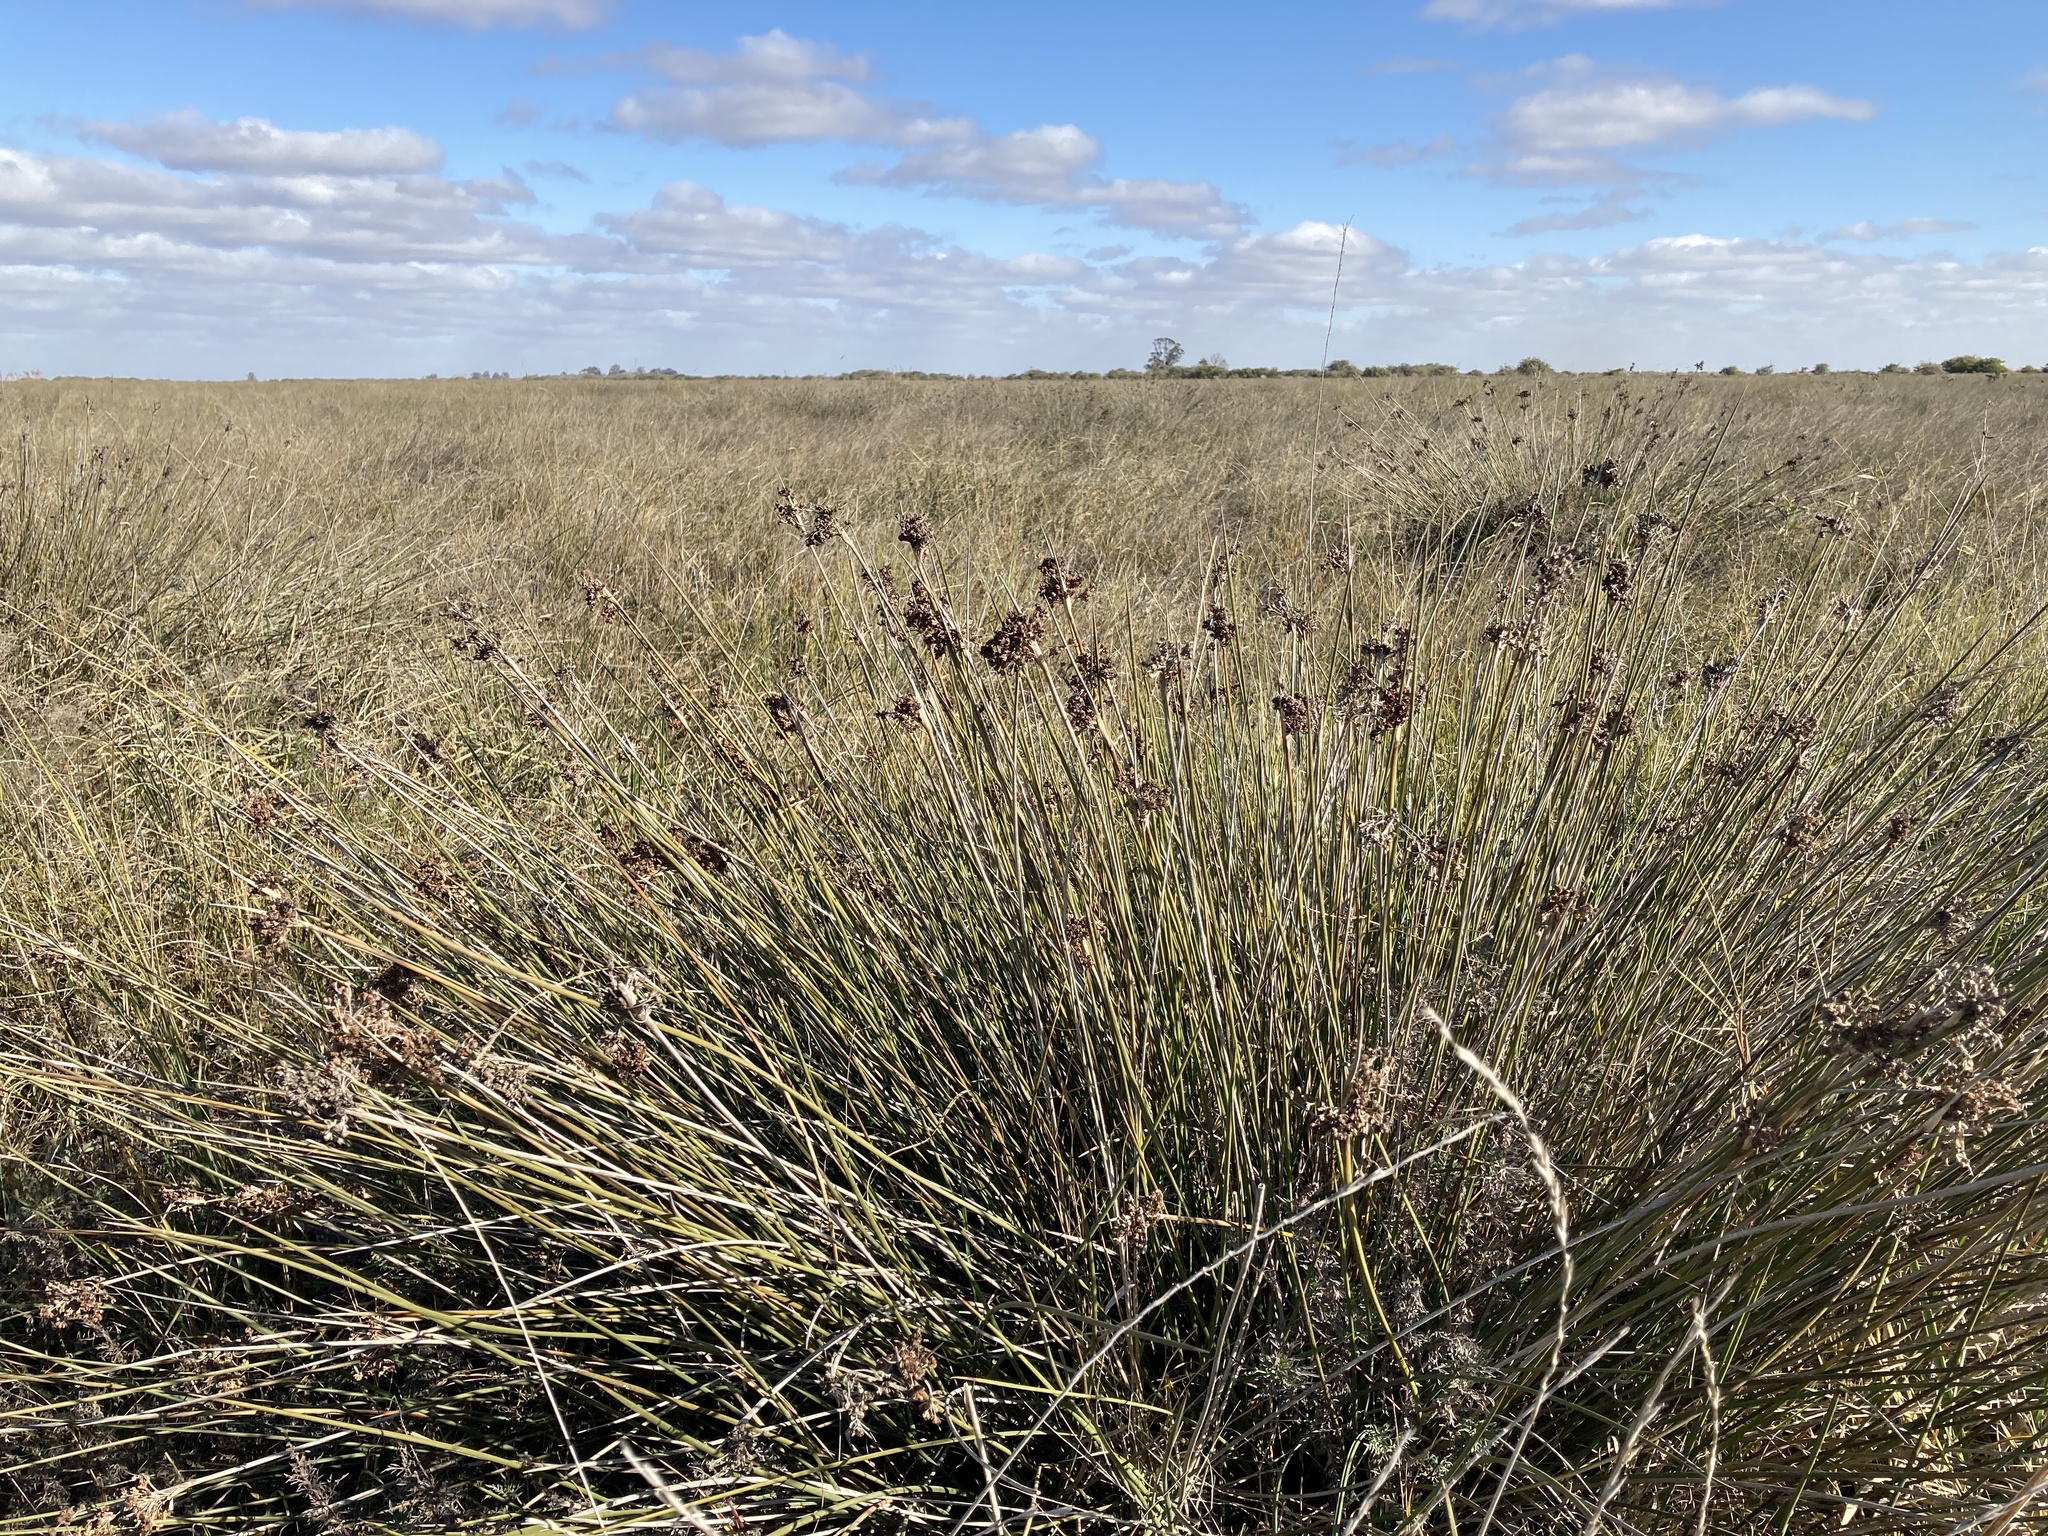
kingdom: Plantae
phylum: Tracheophyta
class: Liliopsida
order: Poales
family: Juncaceae
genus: Juncus
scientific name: Juncus acutus
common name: Sharp rush
